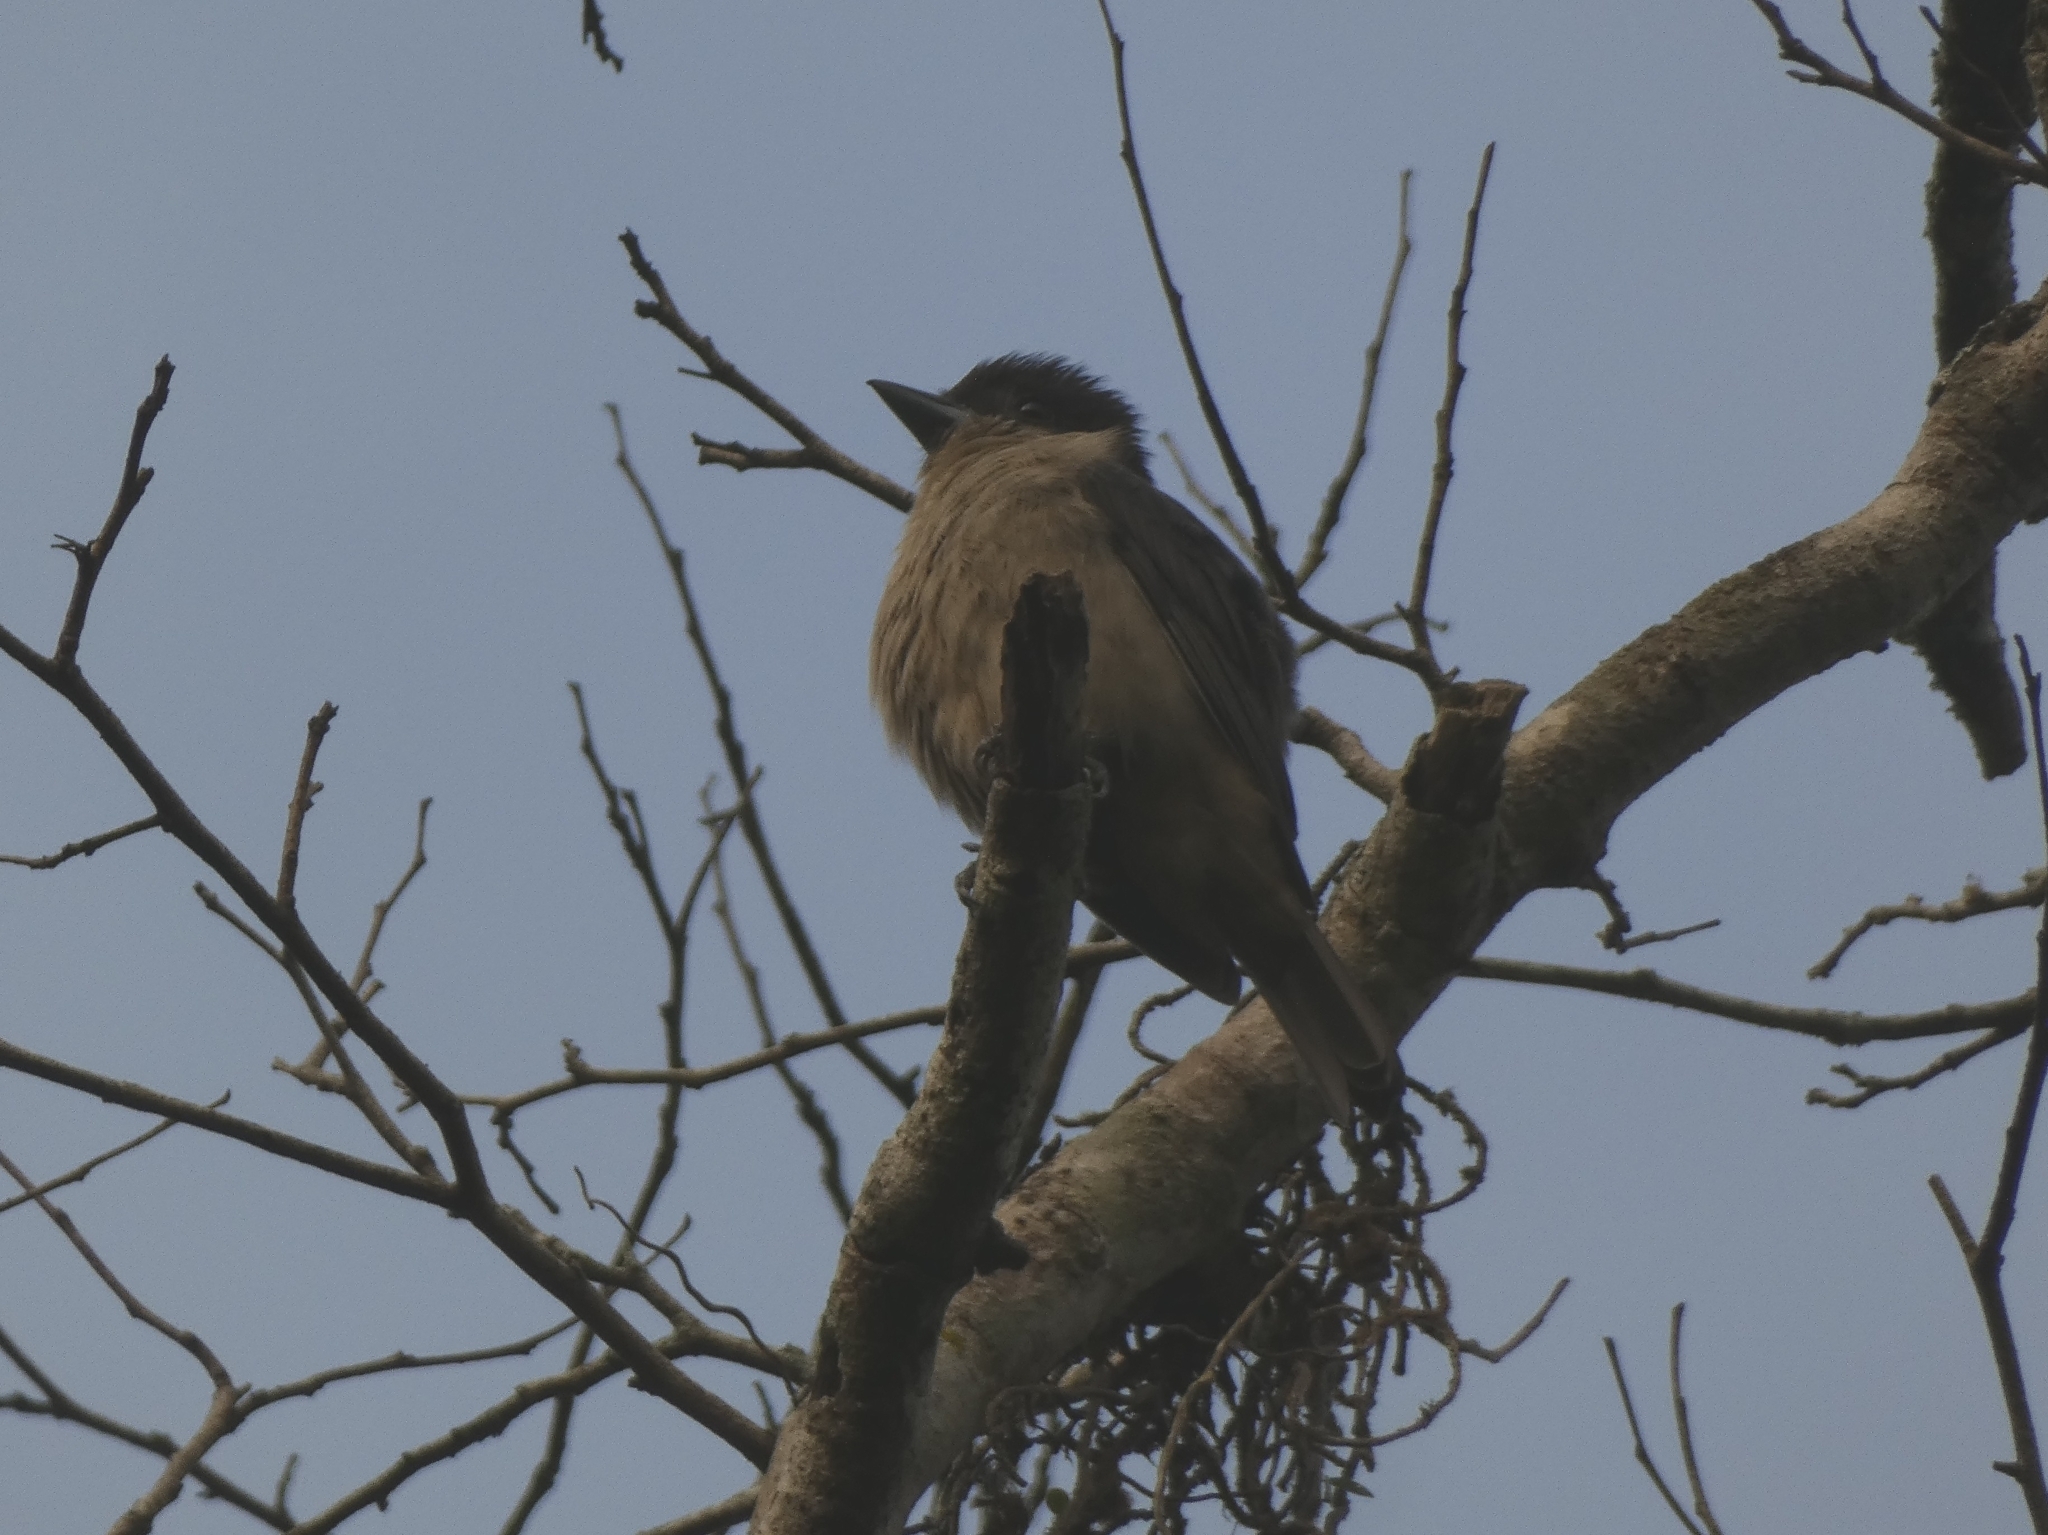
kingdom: Animalia
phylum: Chordata
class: Aves
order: Passeriformes
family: Cotingidae
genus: Pachyramphus
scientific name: Pachyramphus validus
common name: Crested becard
